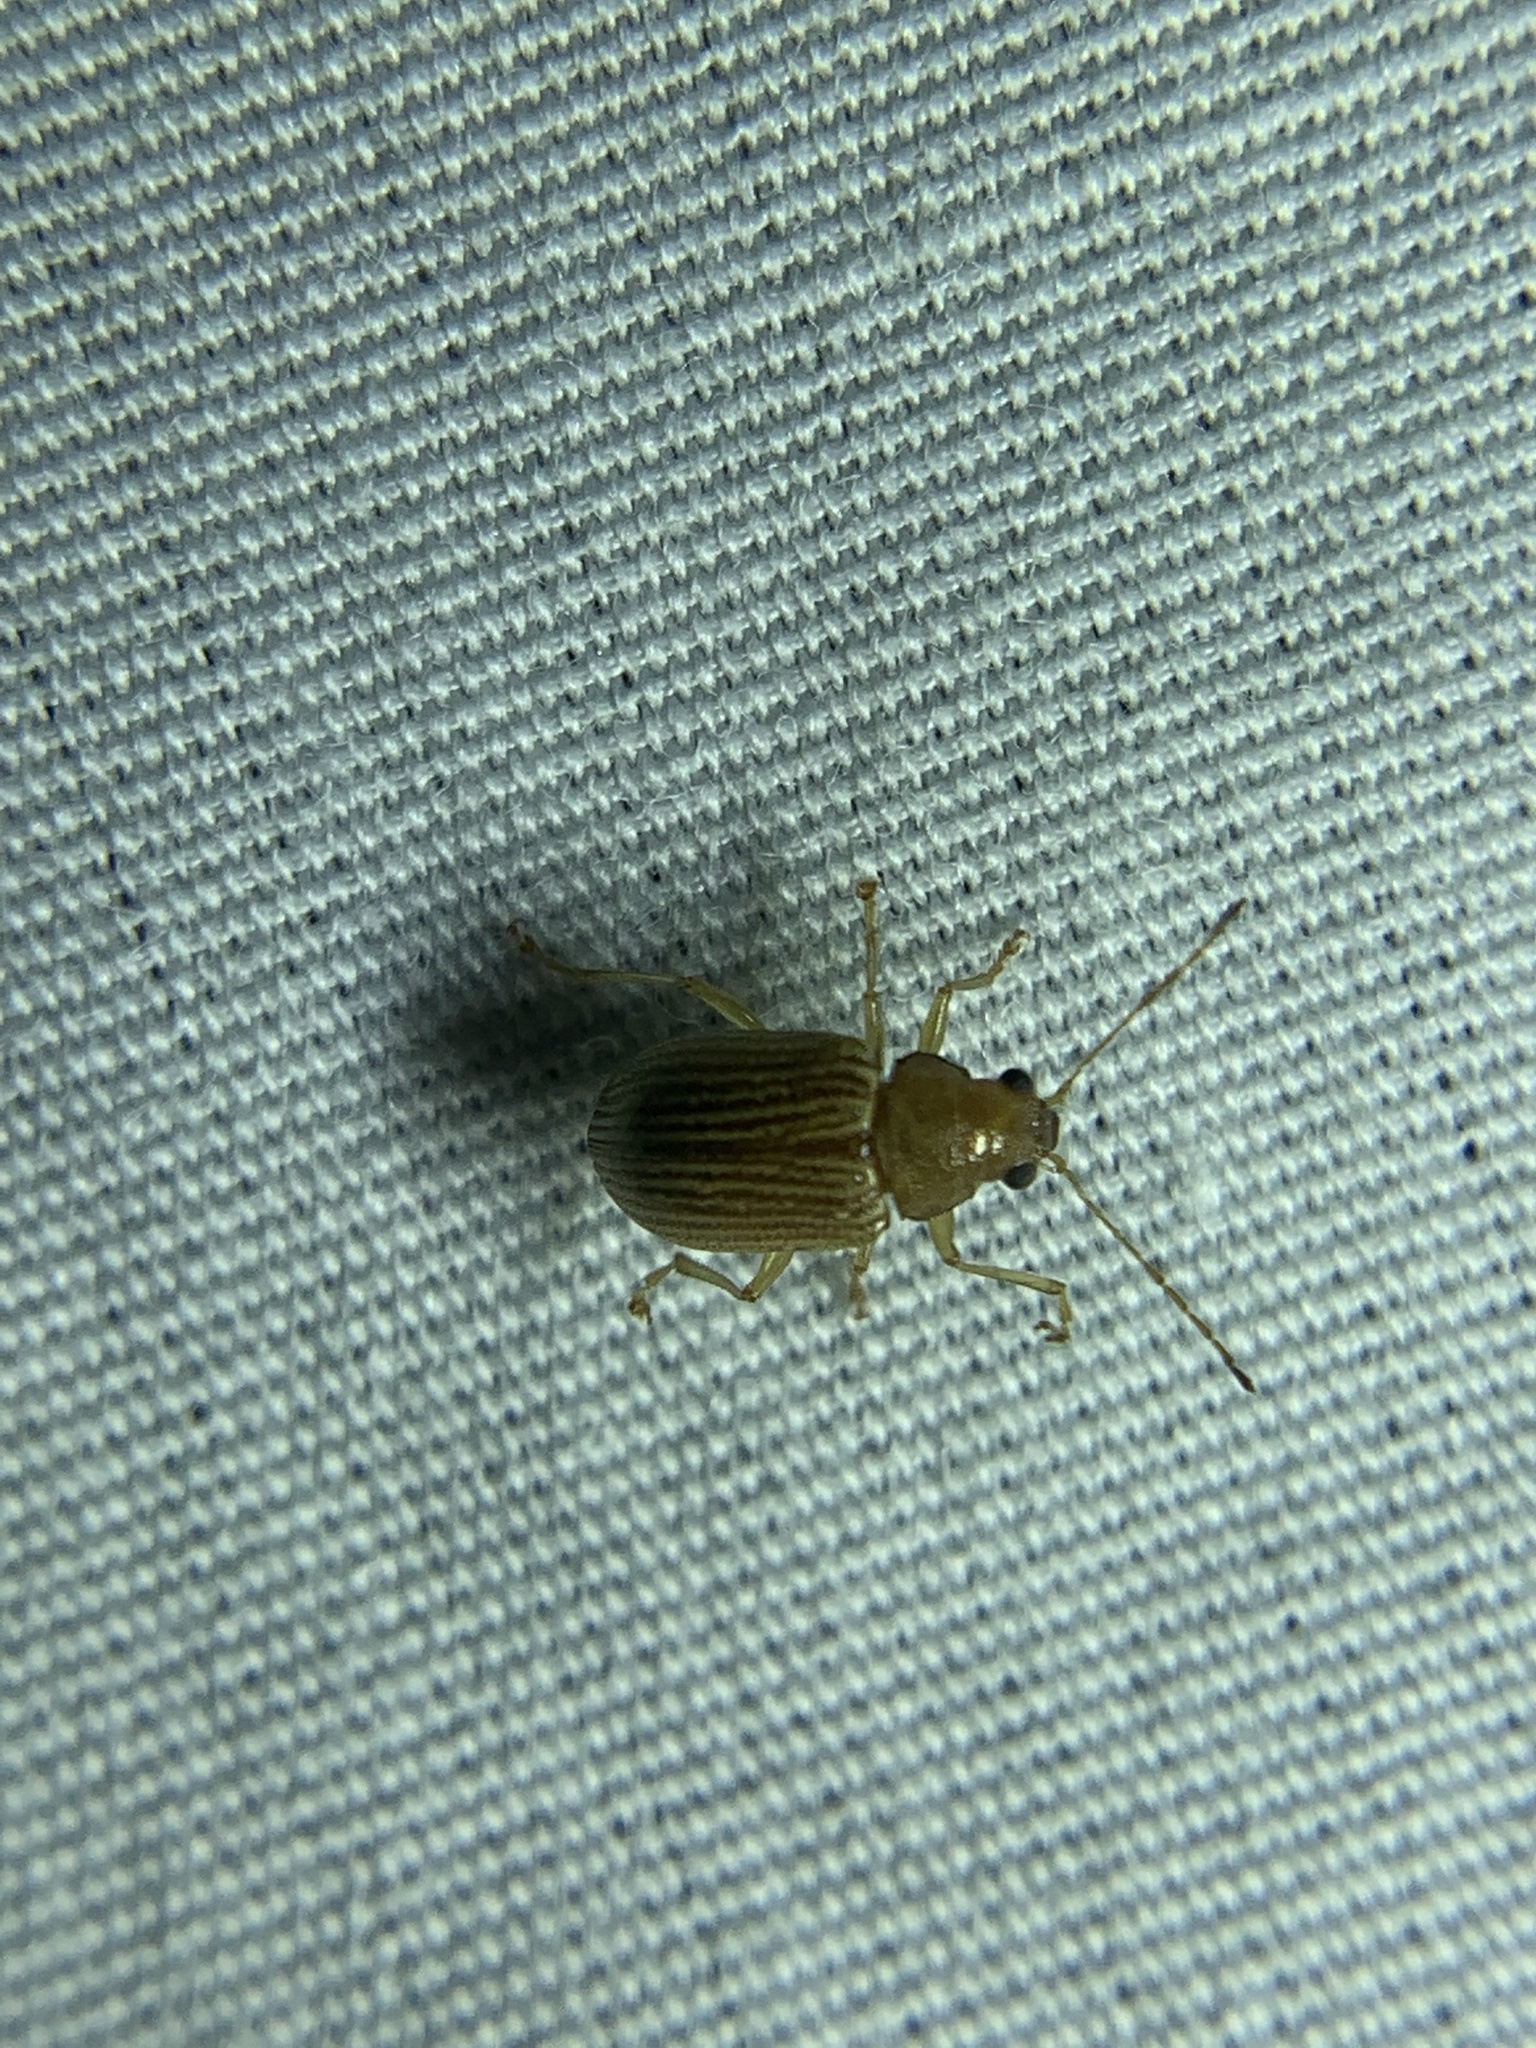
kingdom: Animalia
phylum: Arthropoda
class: Insecta
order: Coleoptera
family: Chrysomelidae
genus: Colaspis
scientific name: Colaspis brunnea
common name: Grape colaspis
